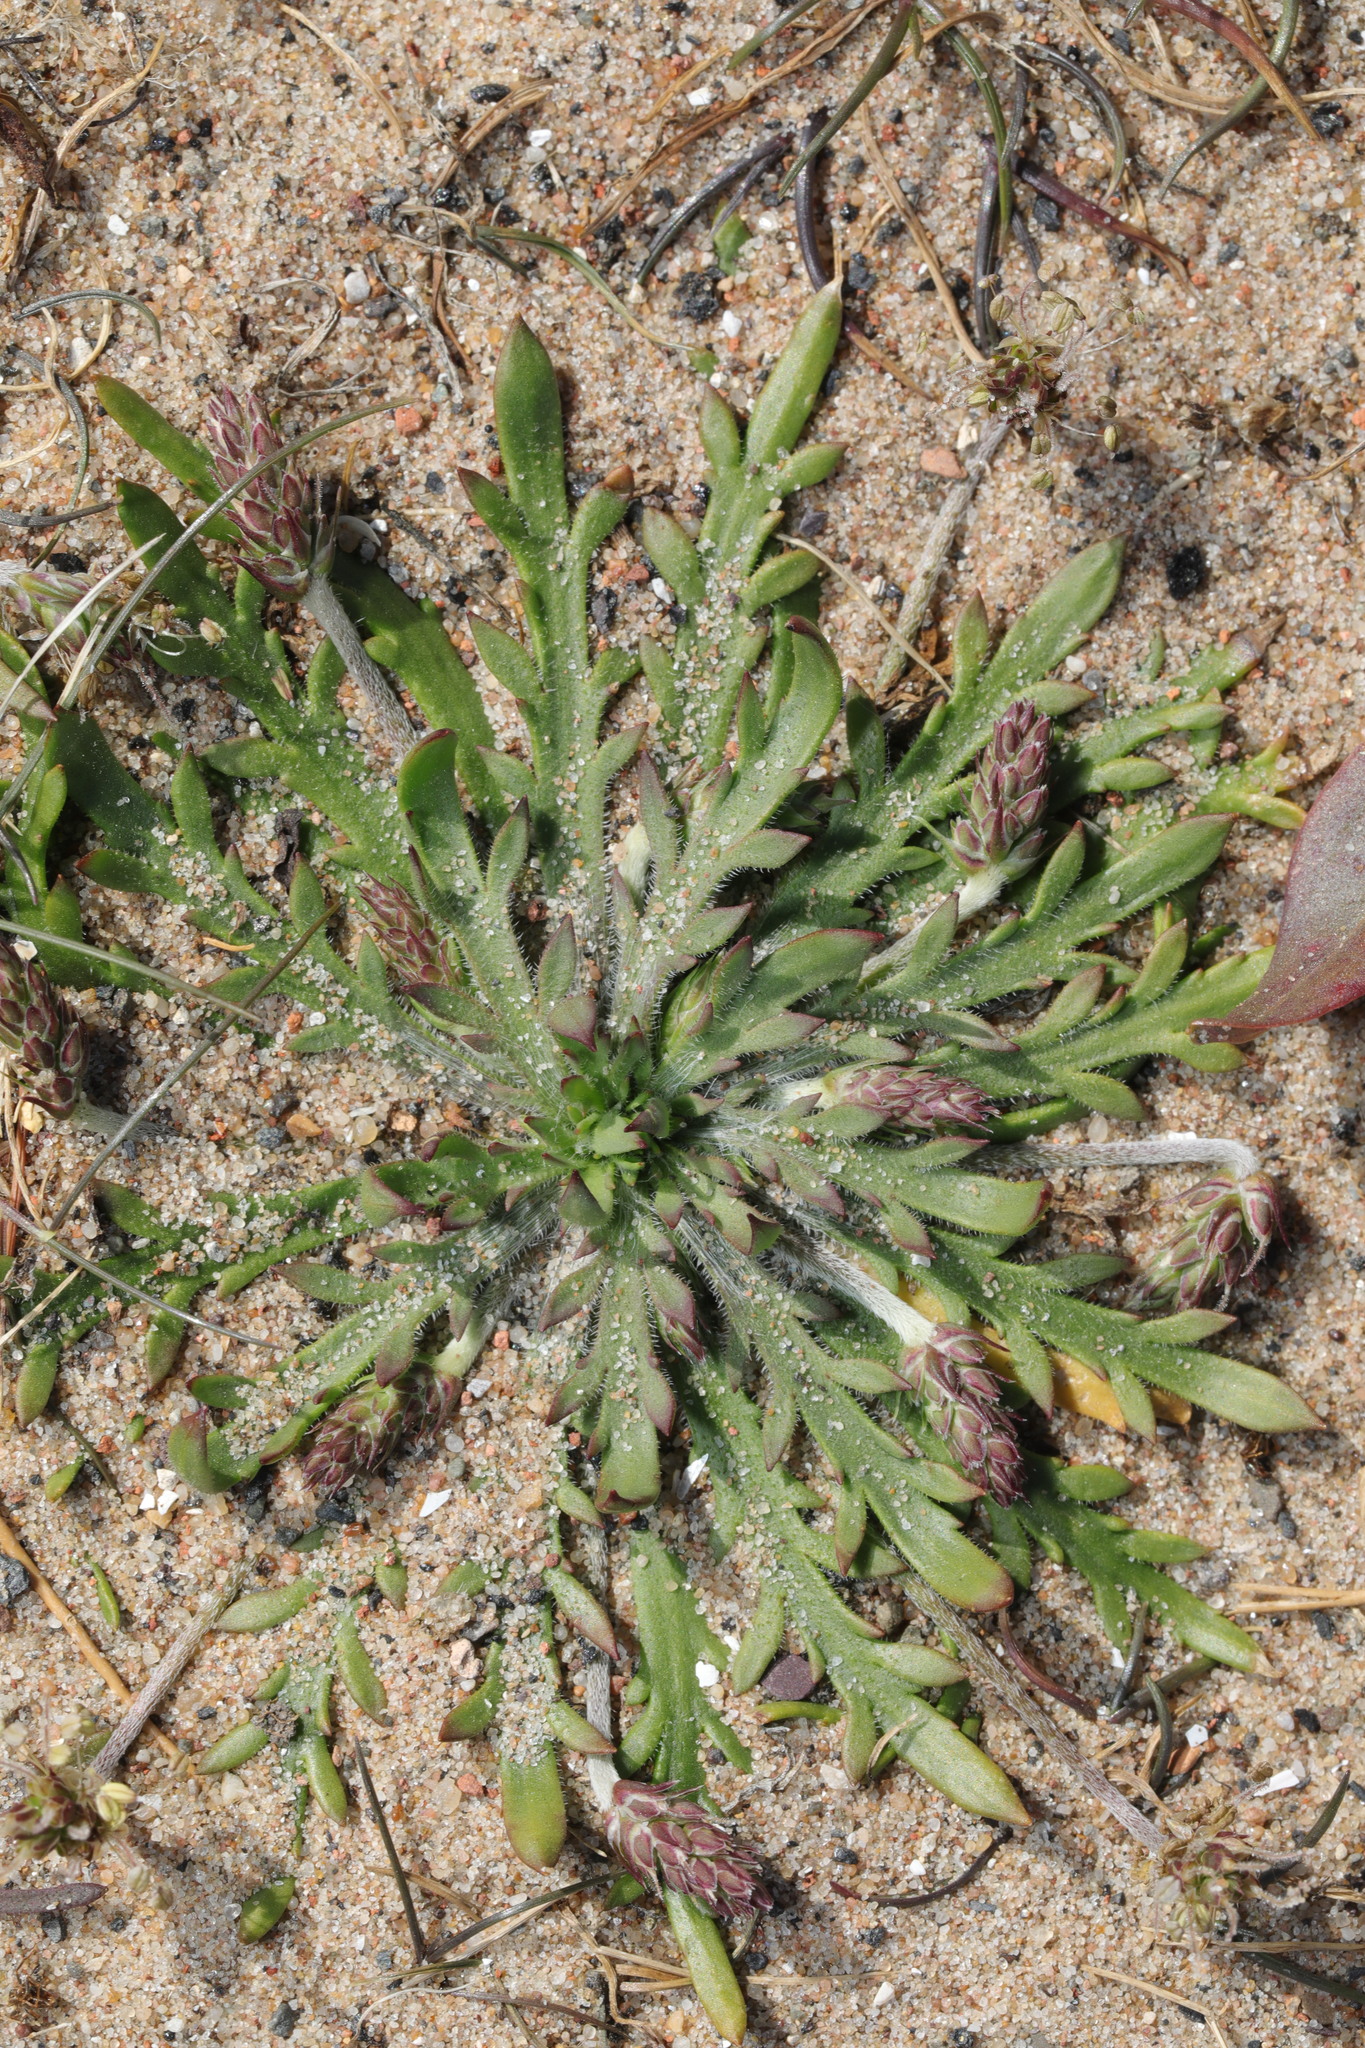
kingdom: Plantae
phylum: Tracheophyta
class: Magnoliopsida
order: Lamiales
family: Plantaginaceae
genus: Plantago
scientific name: Plantago coronopus
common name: Buck's-horn plantain
